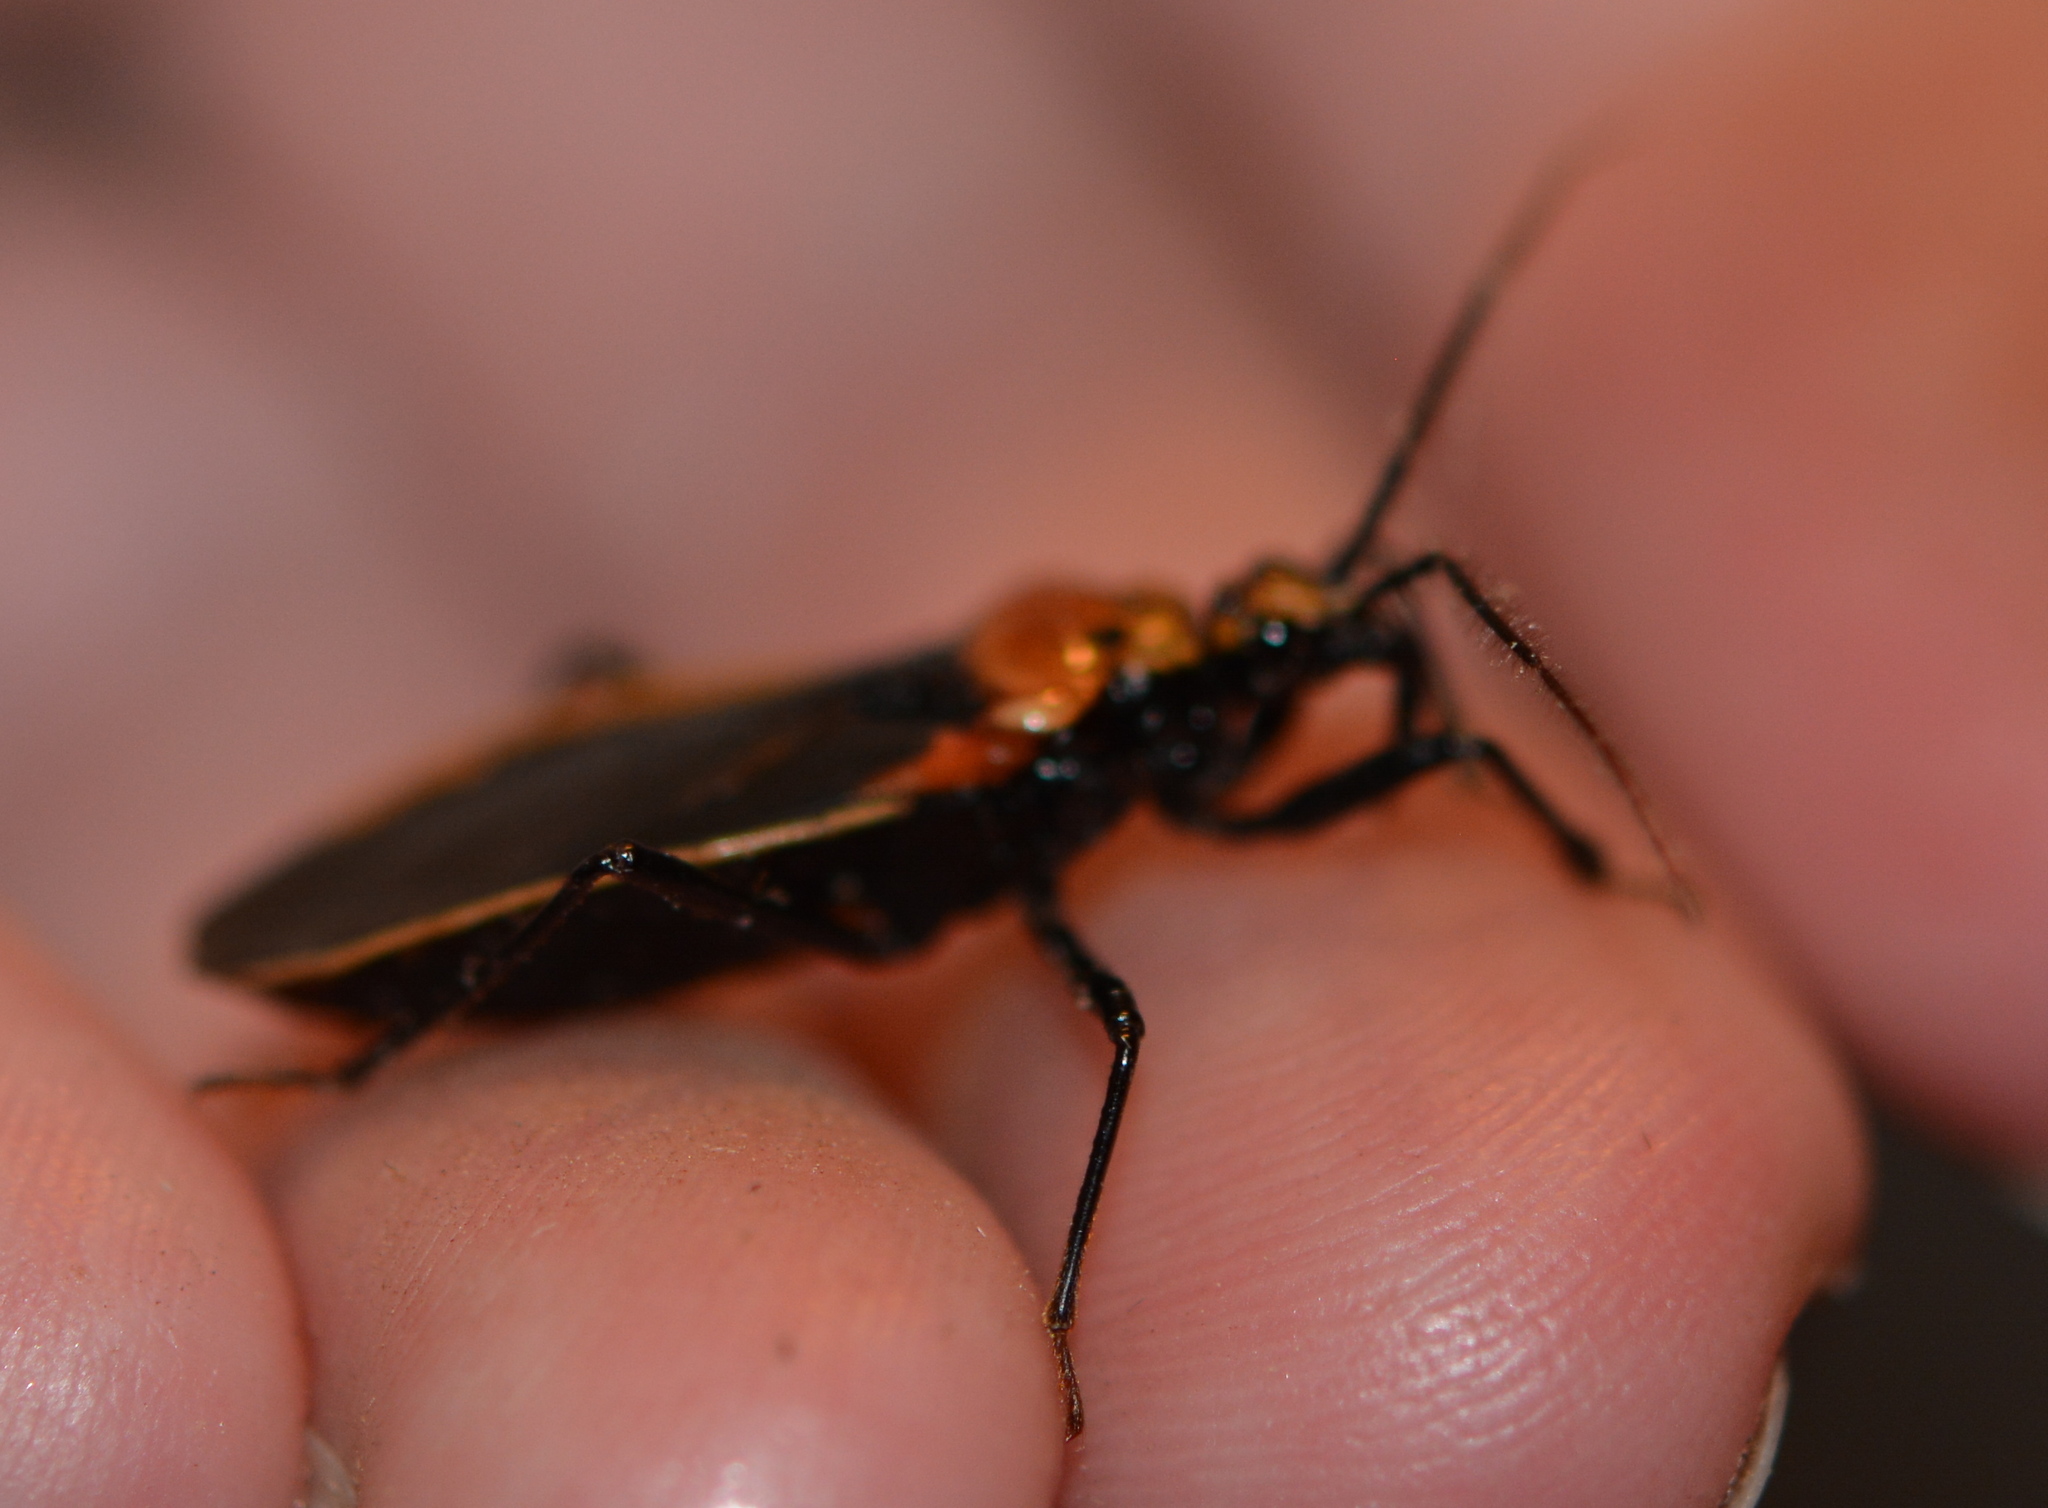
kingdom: Animalia
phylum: Arthropoda
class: Insecta
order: Hemiptera
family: Reduviidae
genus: Rhiginia
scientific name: Rhiginia cinctiventris
